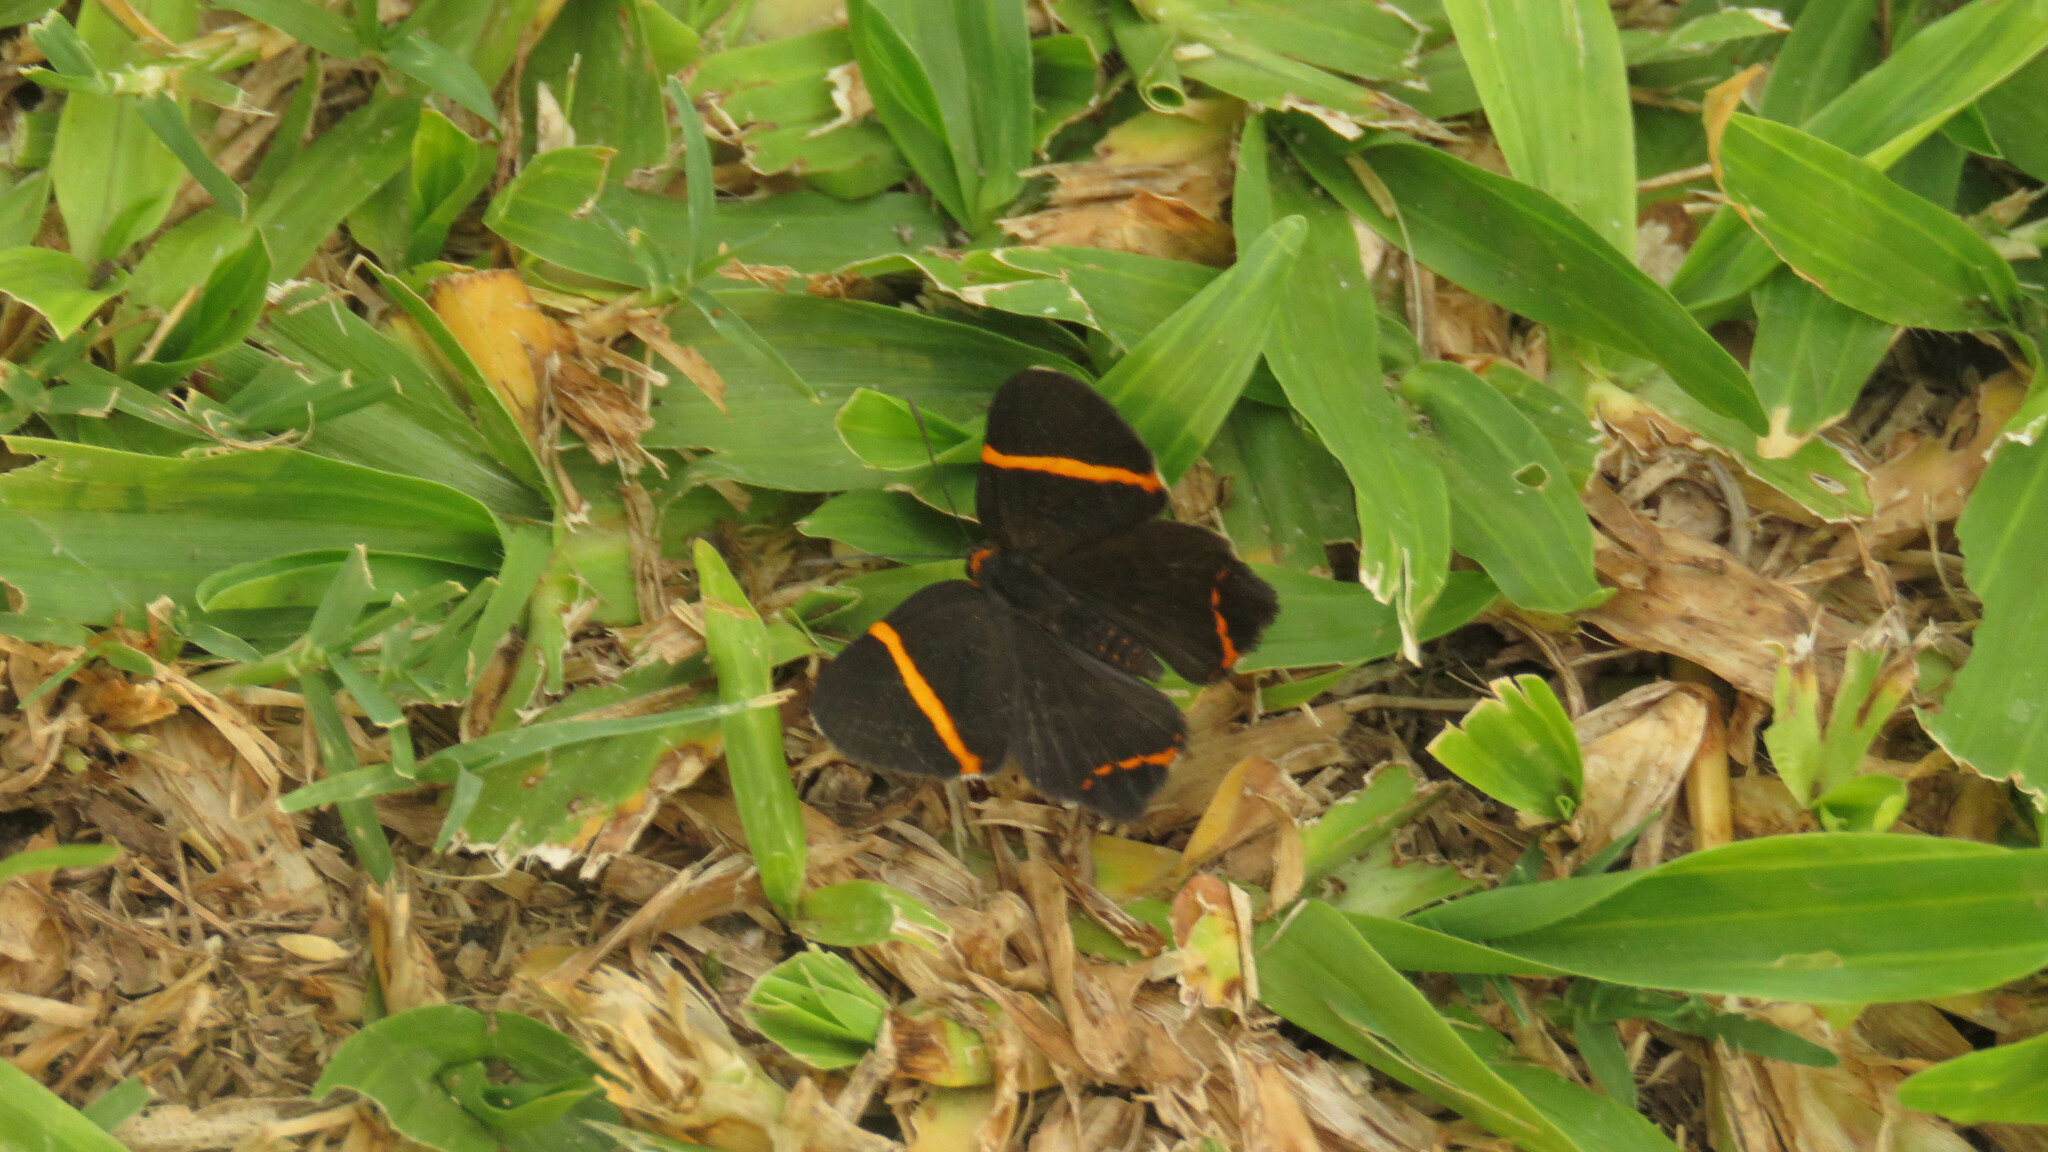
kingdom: Animalia
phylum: Arthropoda
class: Insecta
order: Lepidoptera
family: Riodinidae
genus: Riodina
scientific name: Riodina lysippoides
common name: Little dancer metalmark
